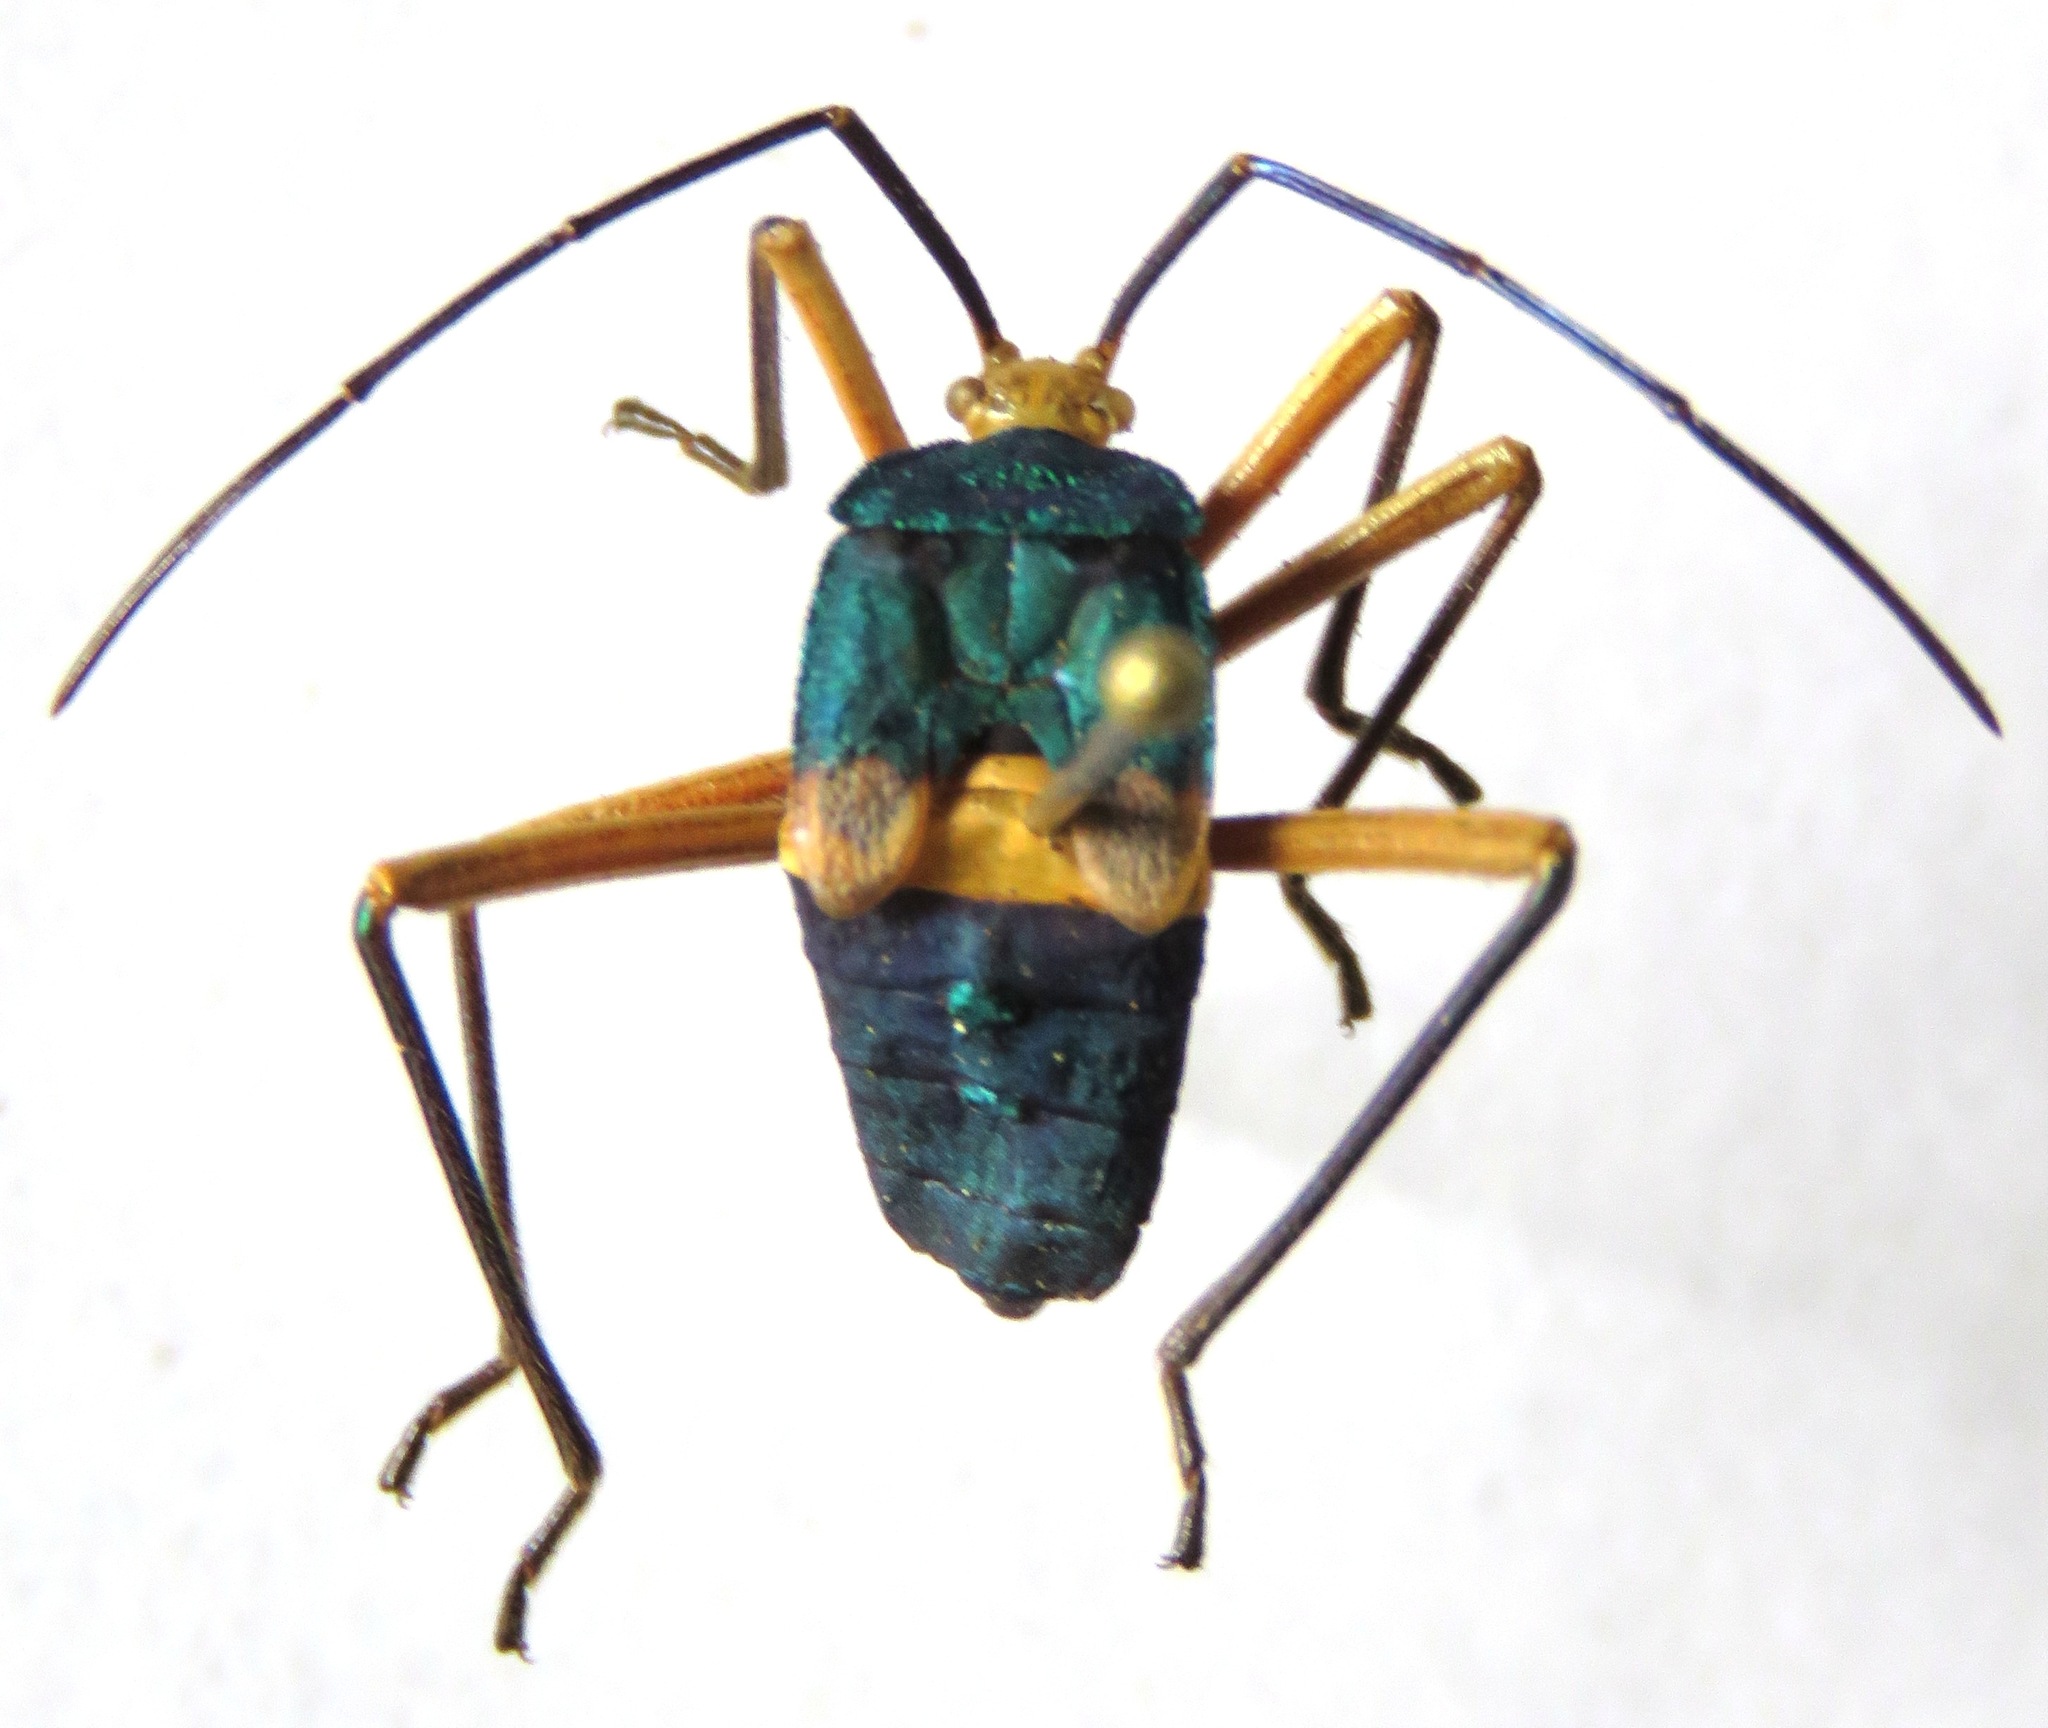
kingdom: Animalia
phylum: Arthropoda
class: Insecta
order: Hemiptera
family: Coreidae
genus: Paryphes
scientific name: Paryphes blandus
